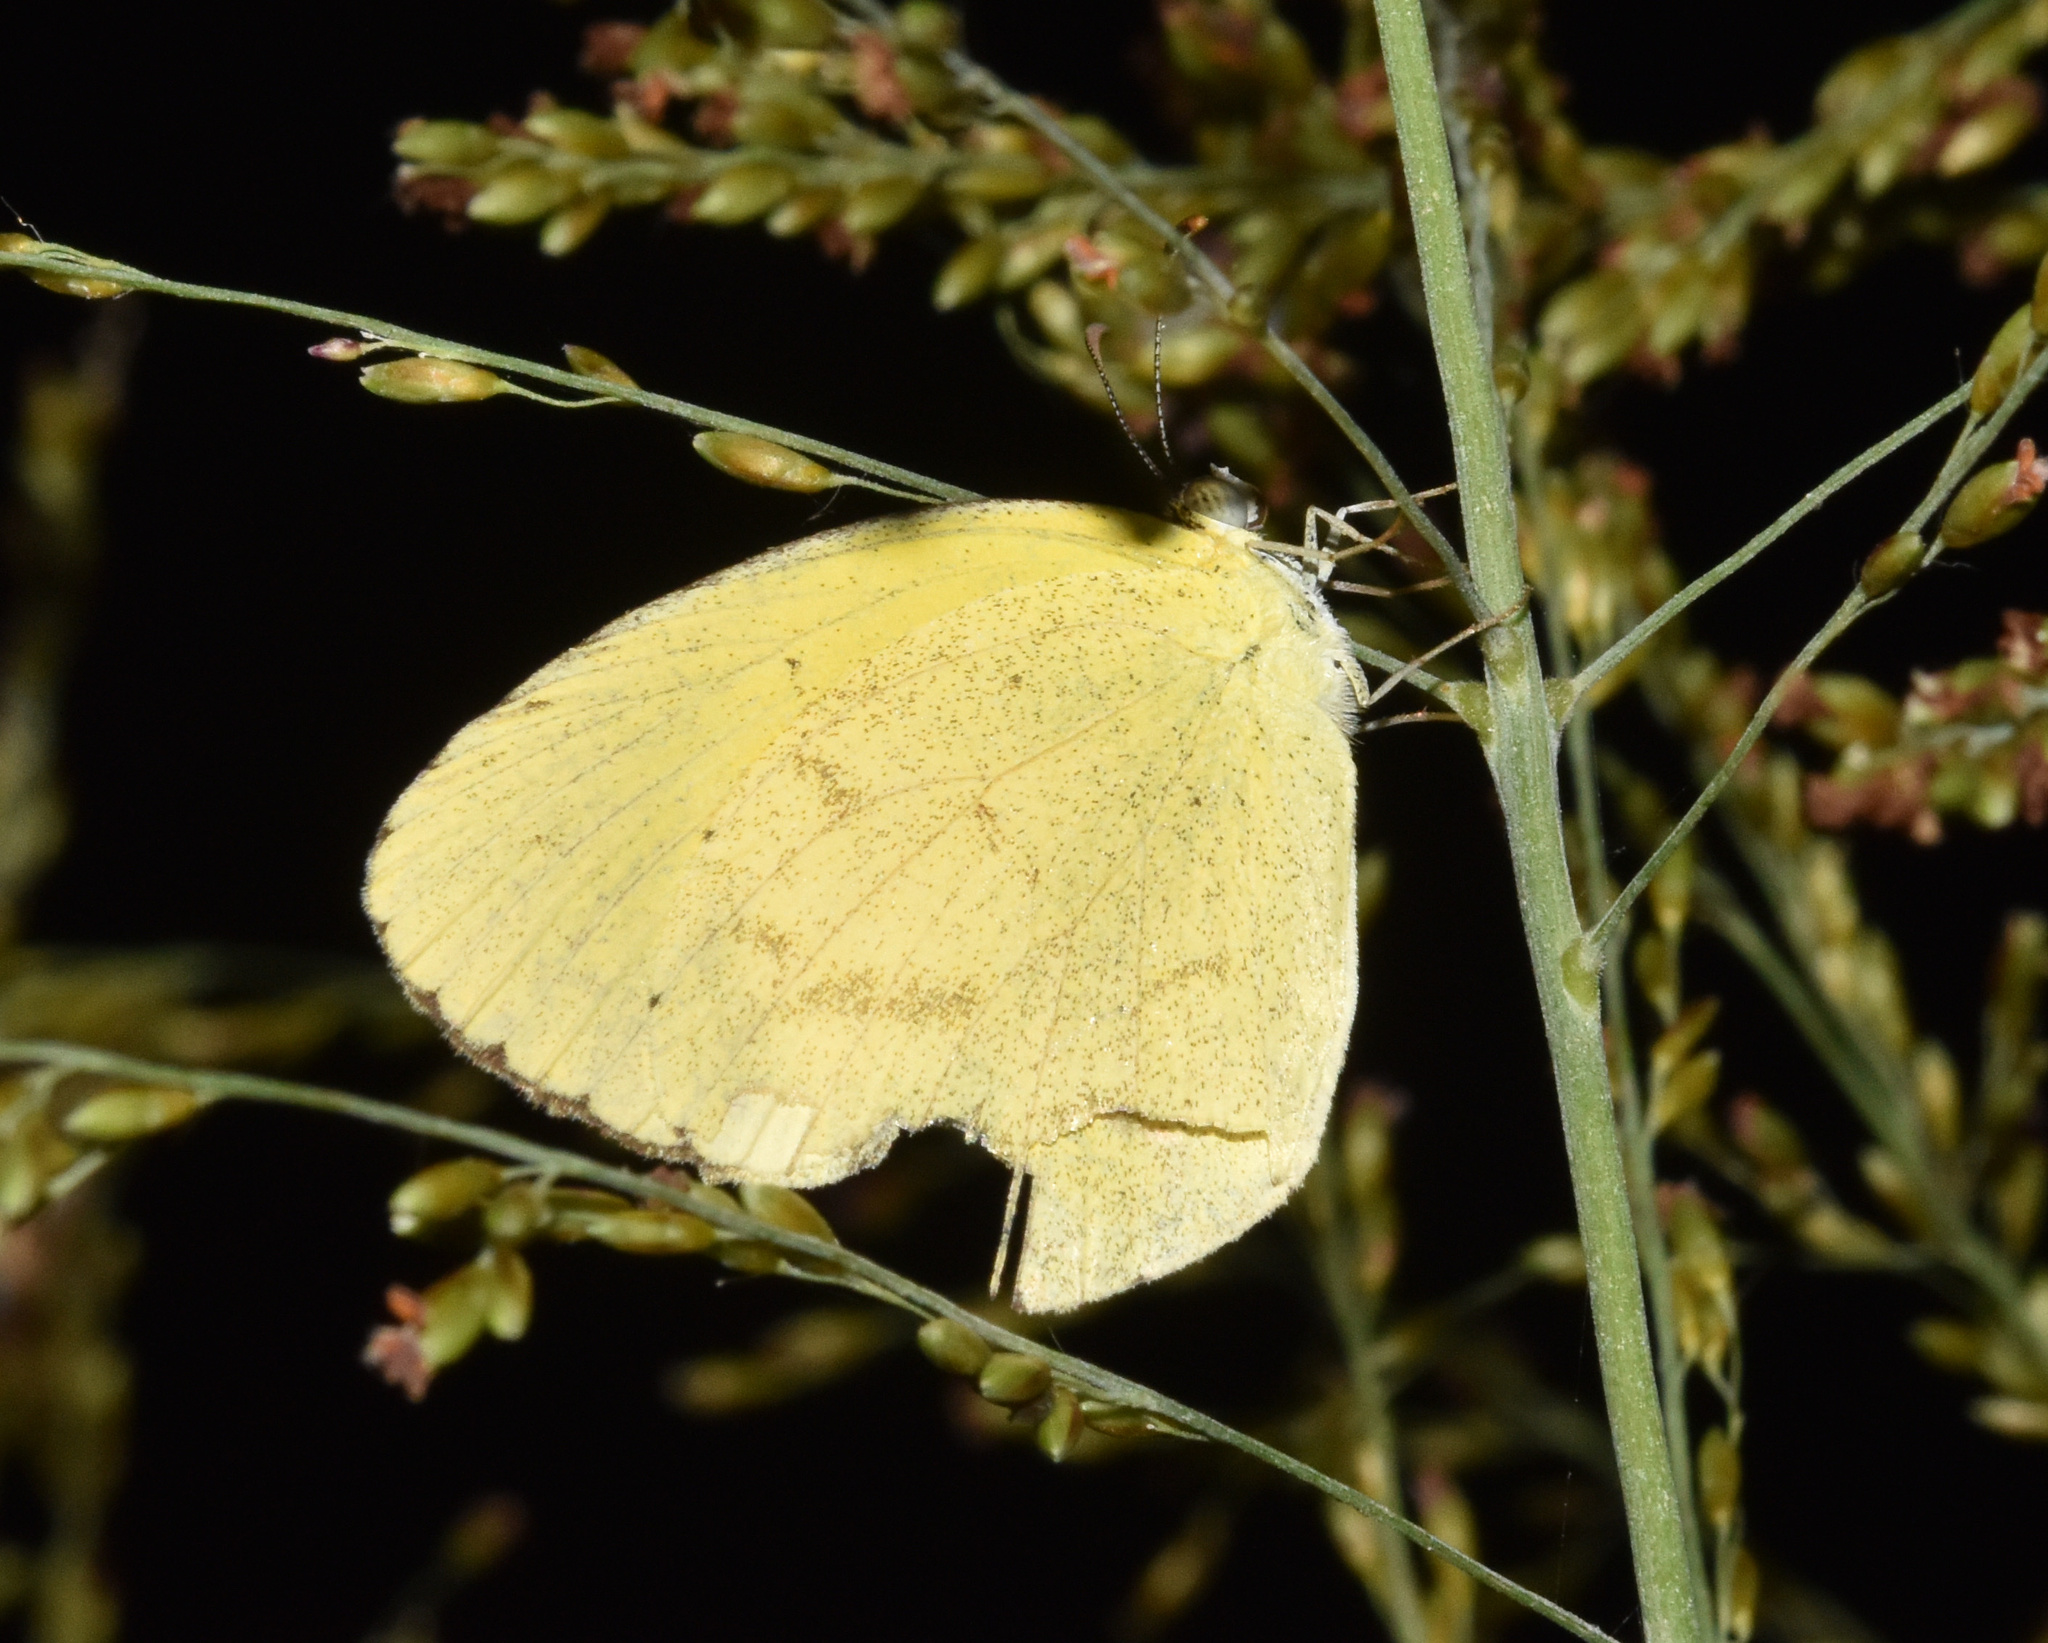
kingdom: Animalia
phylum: Arthropoda
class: Insecta
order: Lepidoptera
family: Pieridae
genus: Eurema
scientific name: Eurema brigitta
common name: Small grass yellow
